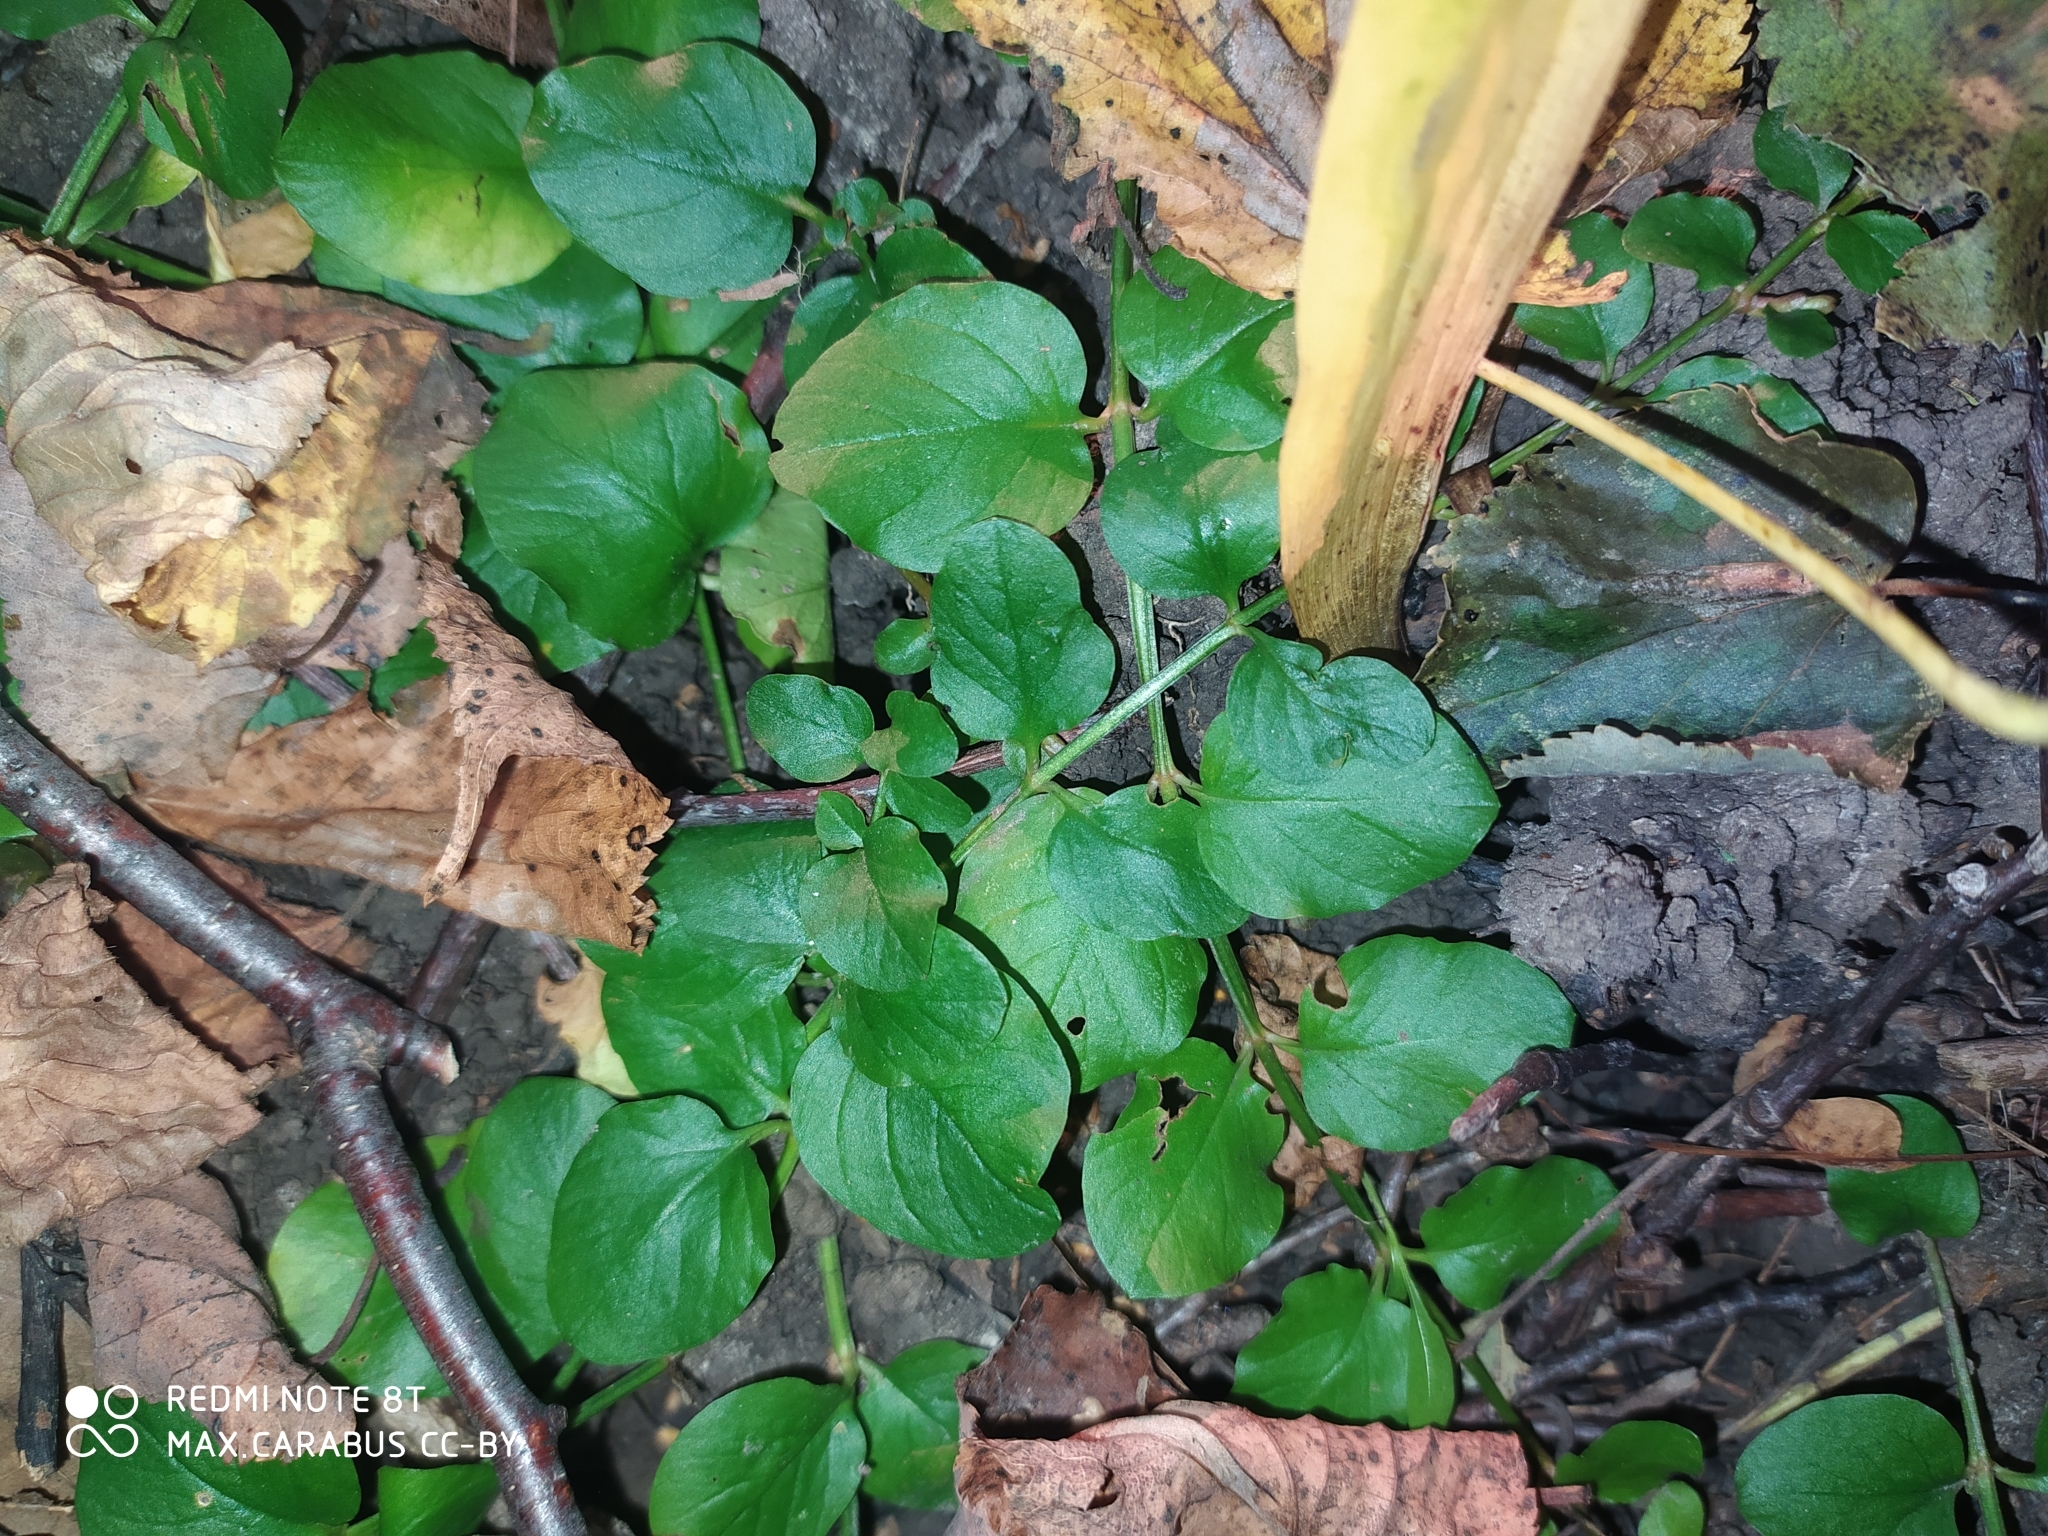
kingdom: Plantae
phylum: Tracheophyta
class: Magnoliopsida
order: Ericales
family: Primulaceae
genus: Lysimachia
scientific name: Lysimachia nummularia
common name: Moneywort
